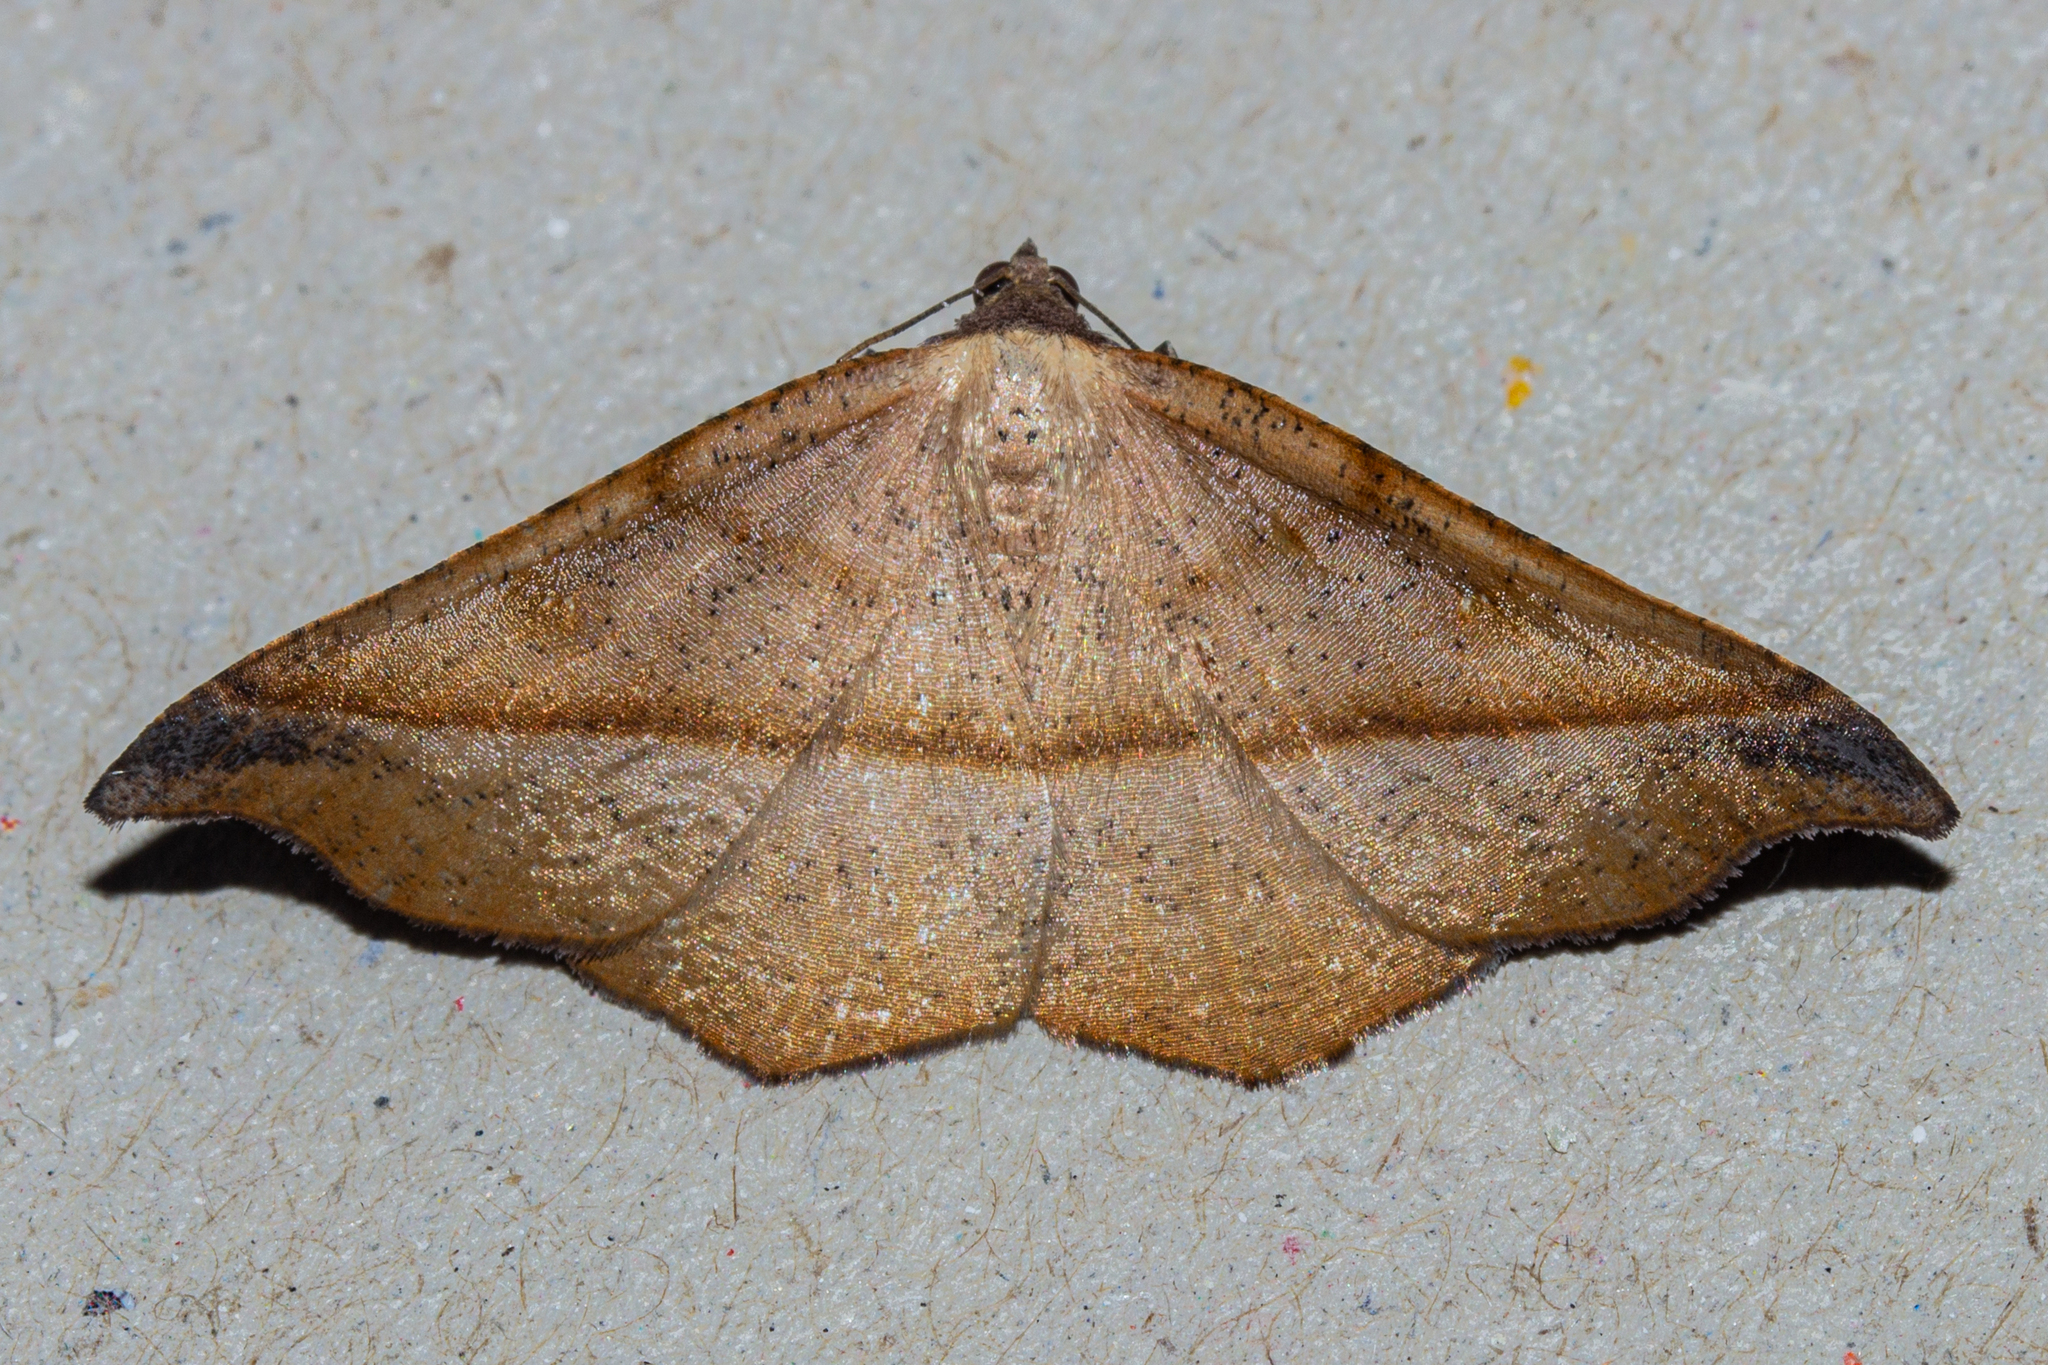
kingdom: Animalia
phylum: Arthropoda
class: Insecta
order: Lepidoptera
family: Geometridae
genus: Sarisa
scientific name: Sarisa muriferata
